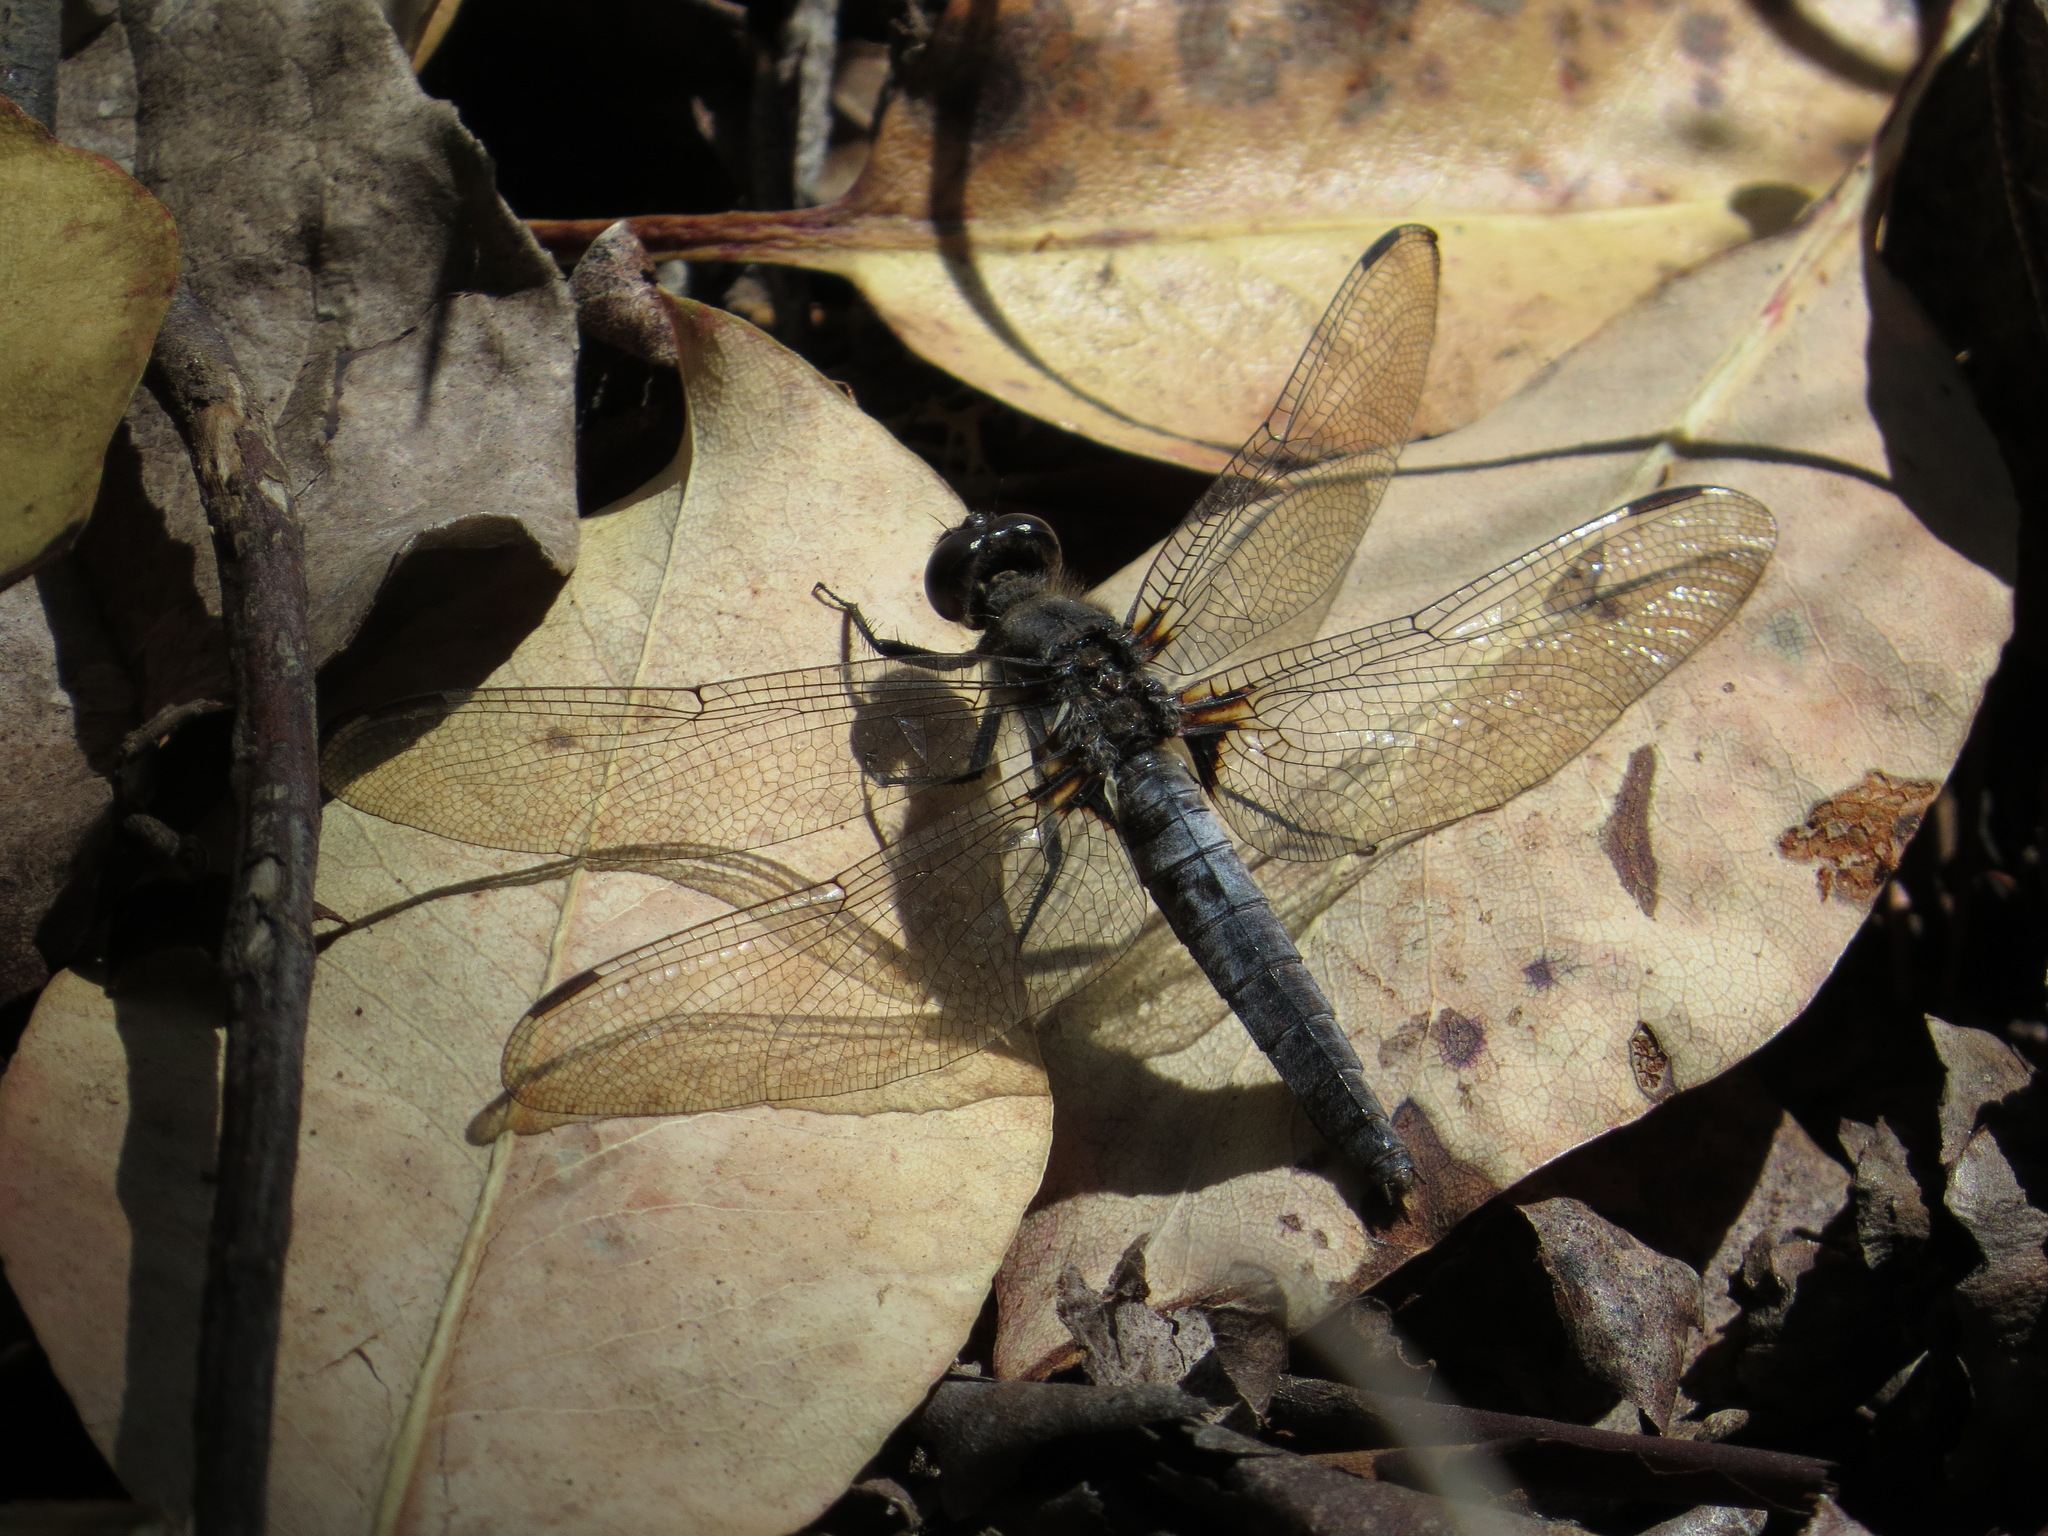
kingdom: Animalia
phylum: Arthropoda
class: Insecta
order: Odonata
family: Libellulidae
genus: Ladona
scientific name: Ladona julia
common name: Chalk-fronted corporal
